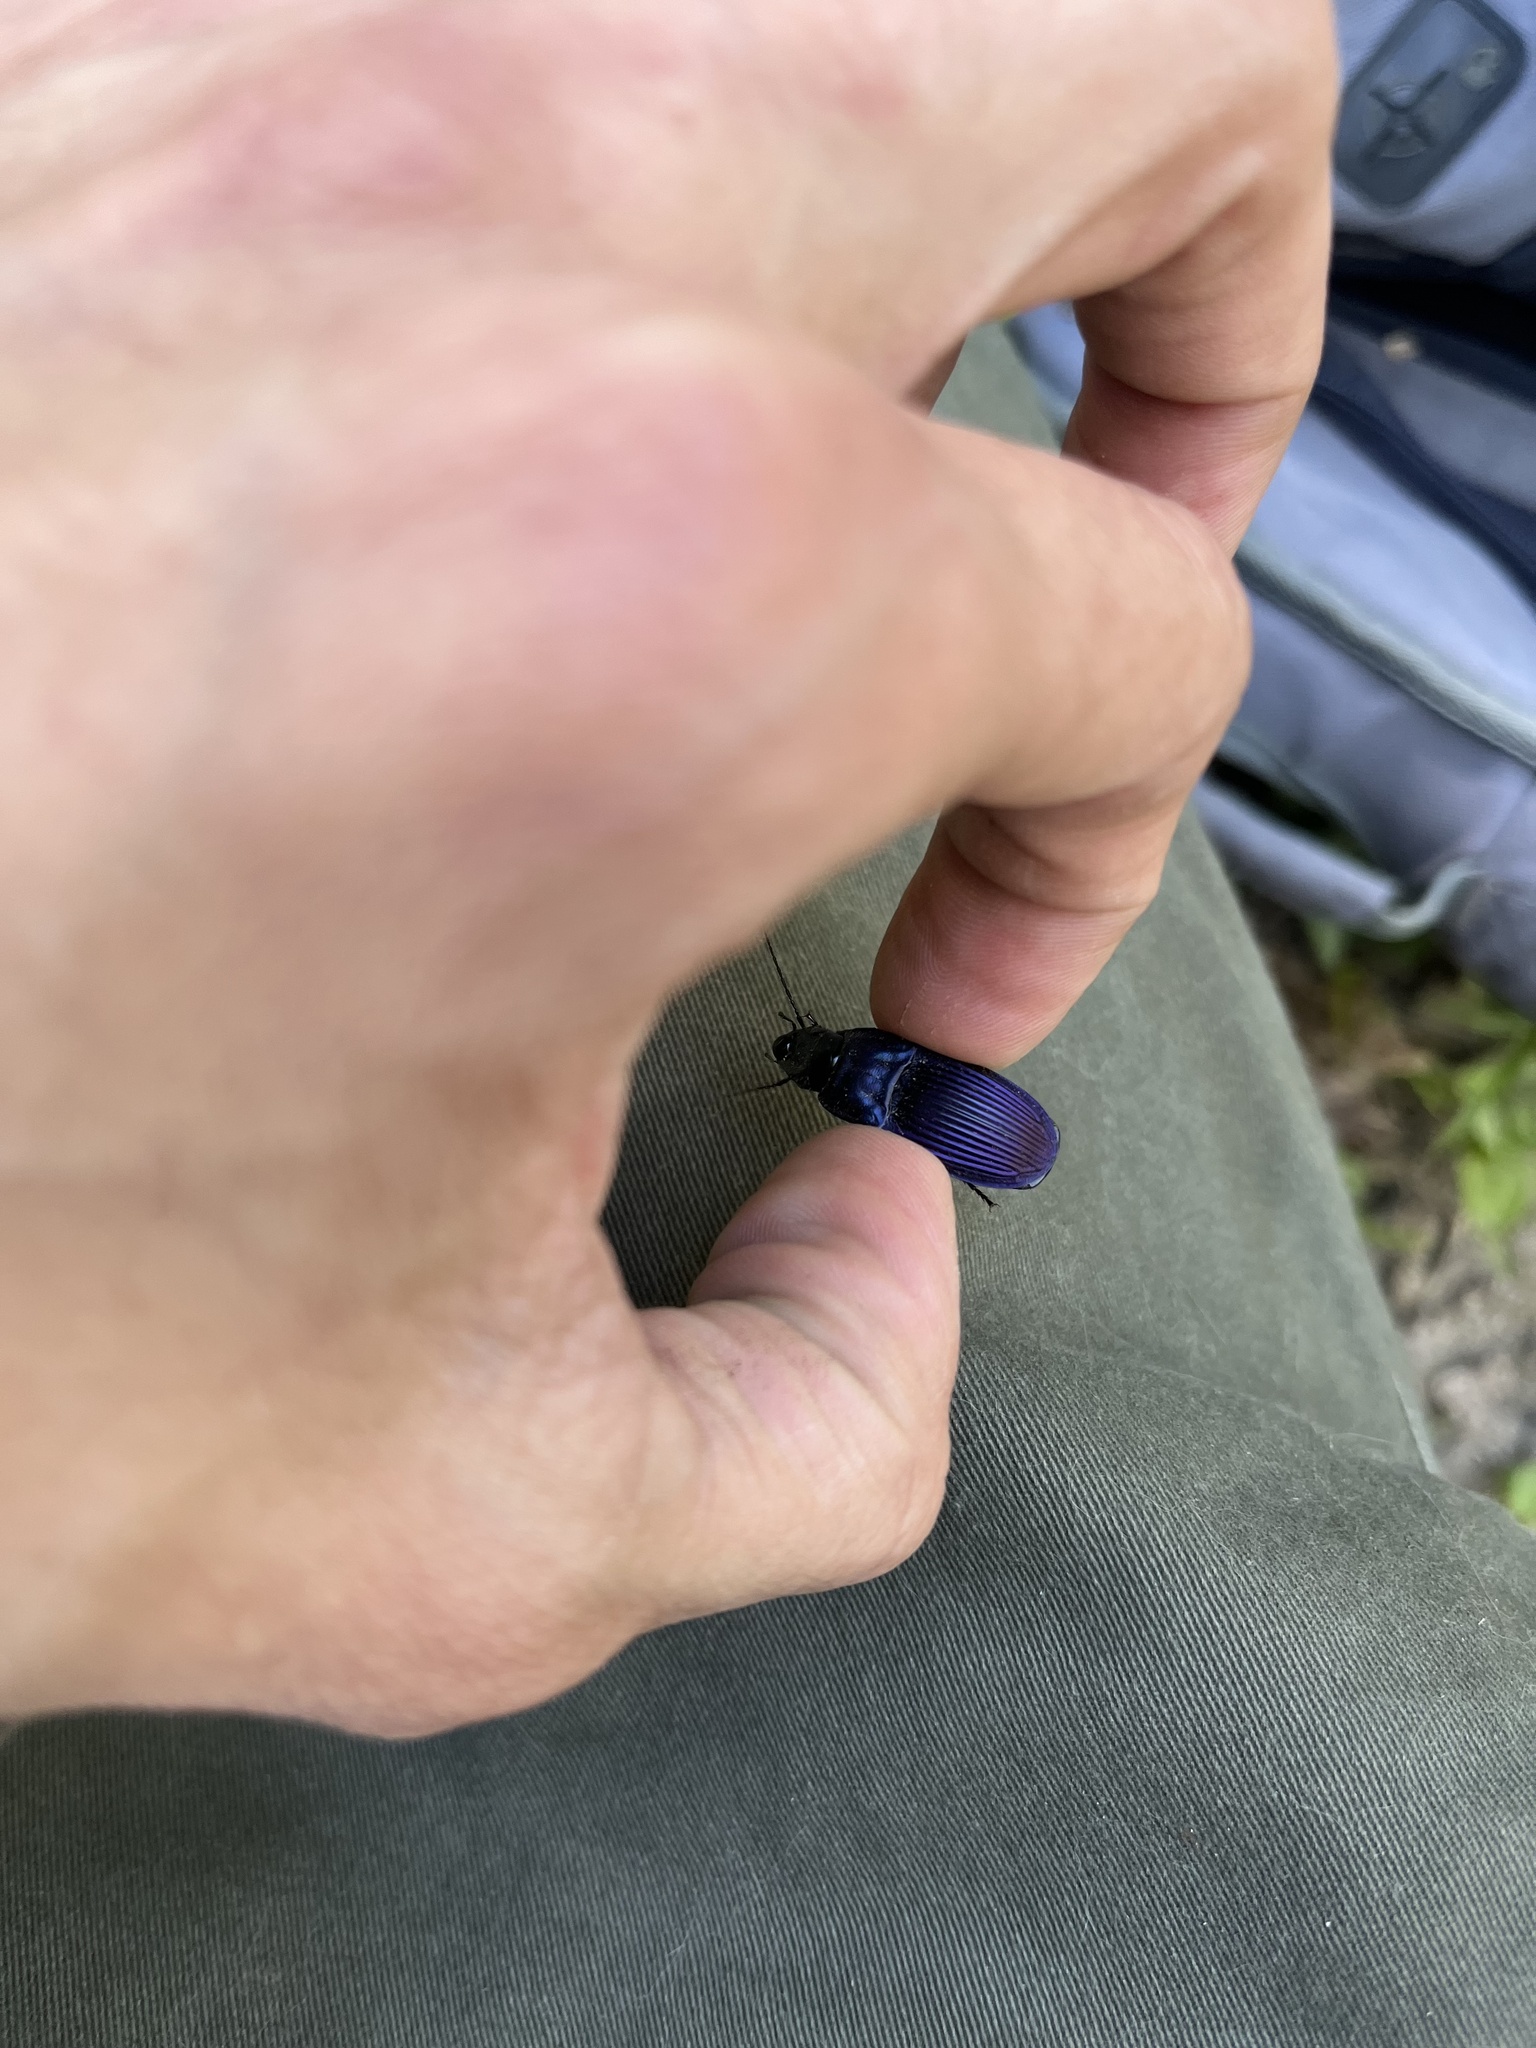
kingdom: Animalia
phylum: Arthropoda
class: Insecta
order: Coleoptera
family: Carabidae
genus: Dicaelus
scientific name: Dicaelus purpuratus
